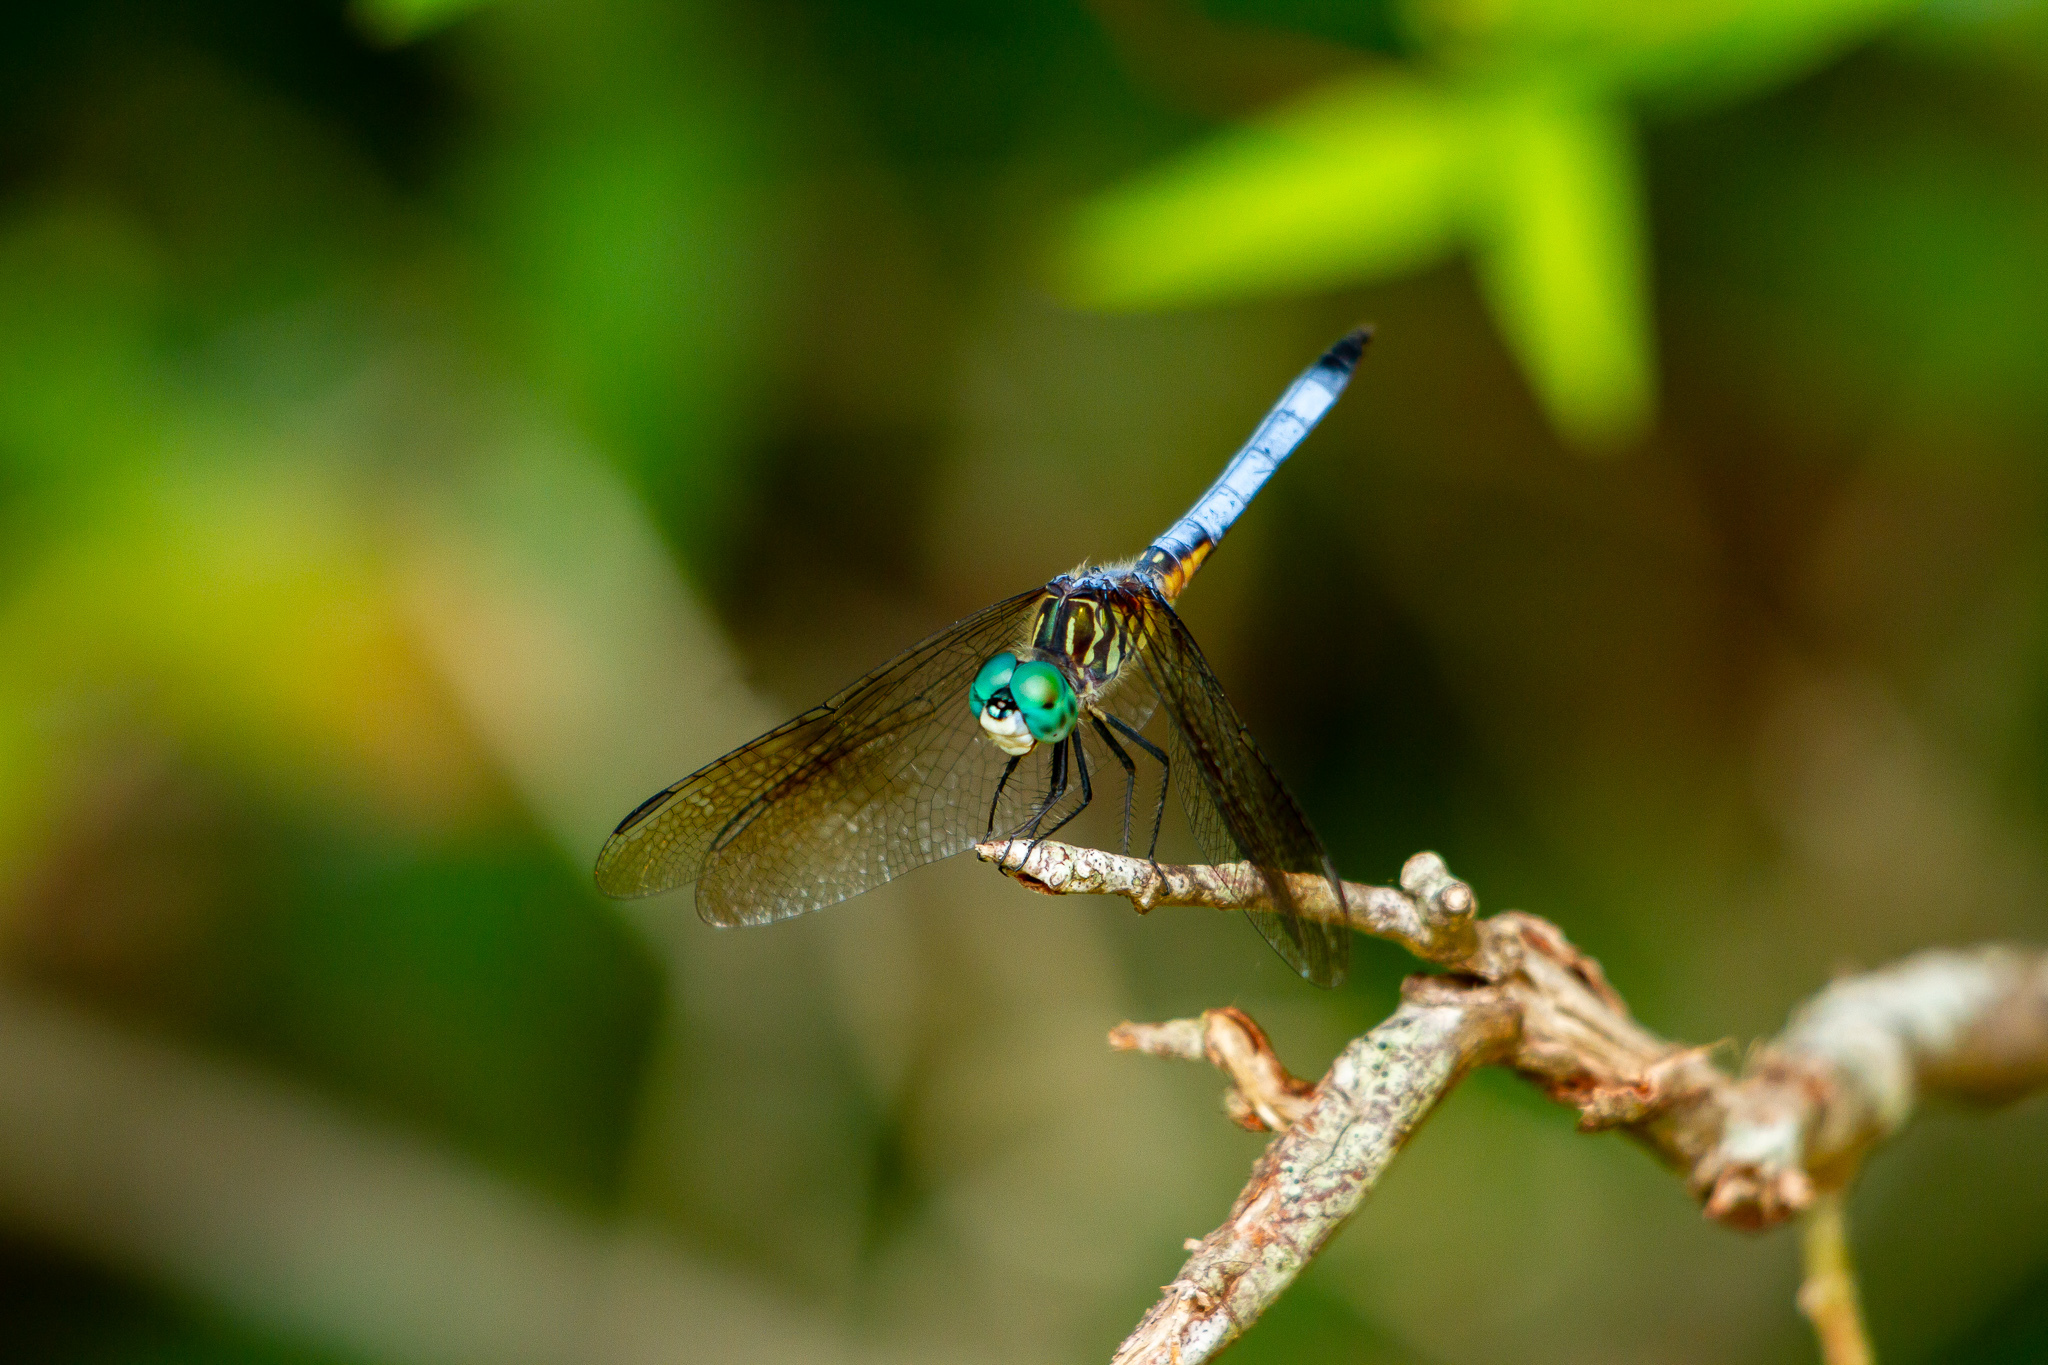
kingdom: Animalia
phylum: Arthropoda
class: Insecta
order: Odonata
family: Libellulidae
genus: Pachydiplax
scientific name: Pachydiplax longipennis
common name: Blue dasher
